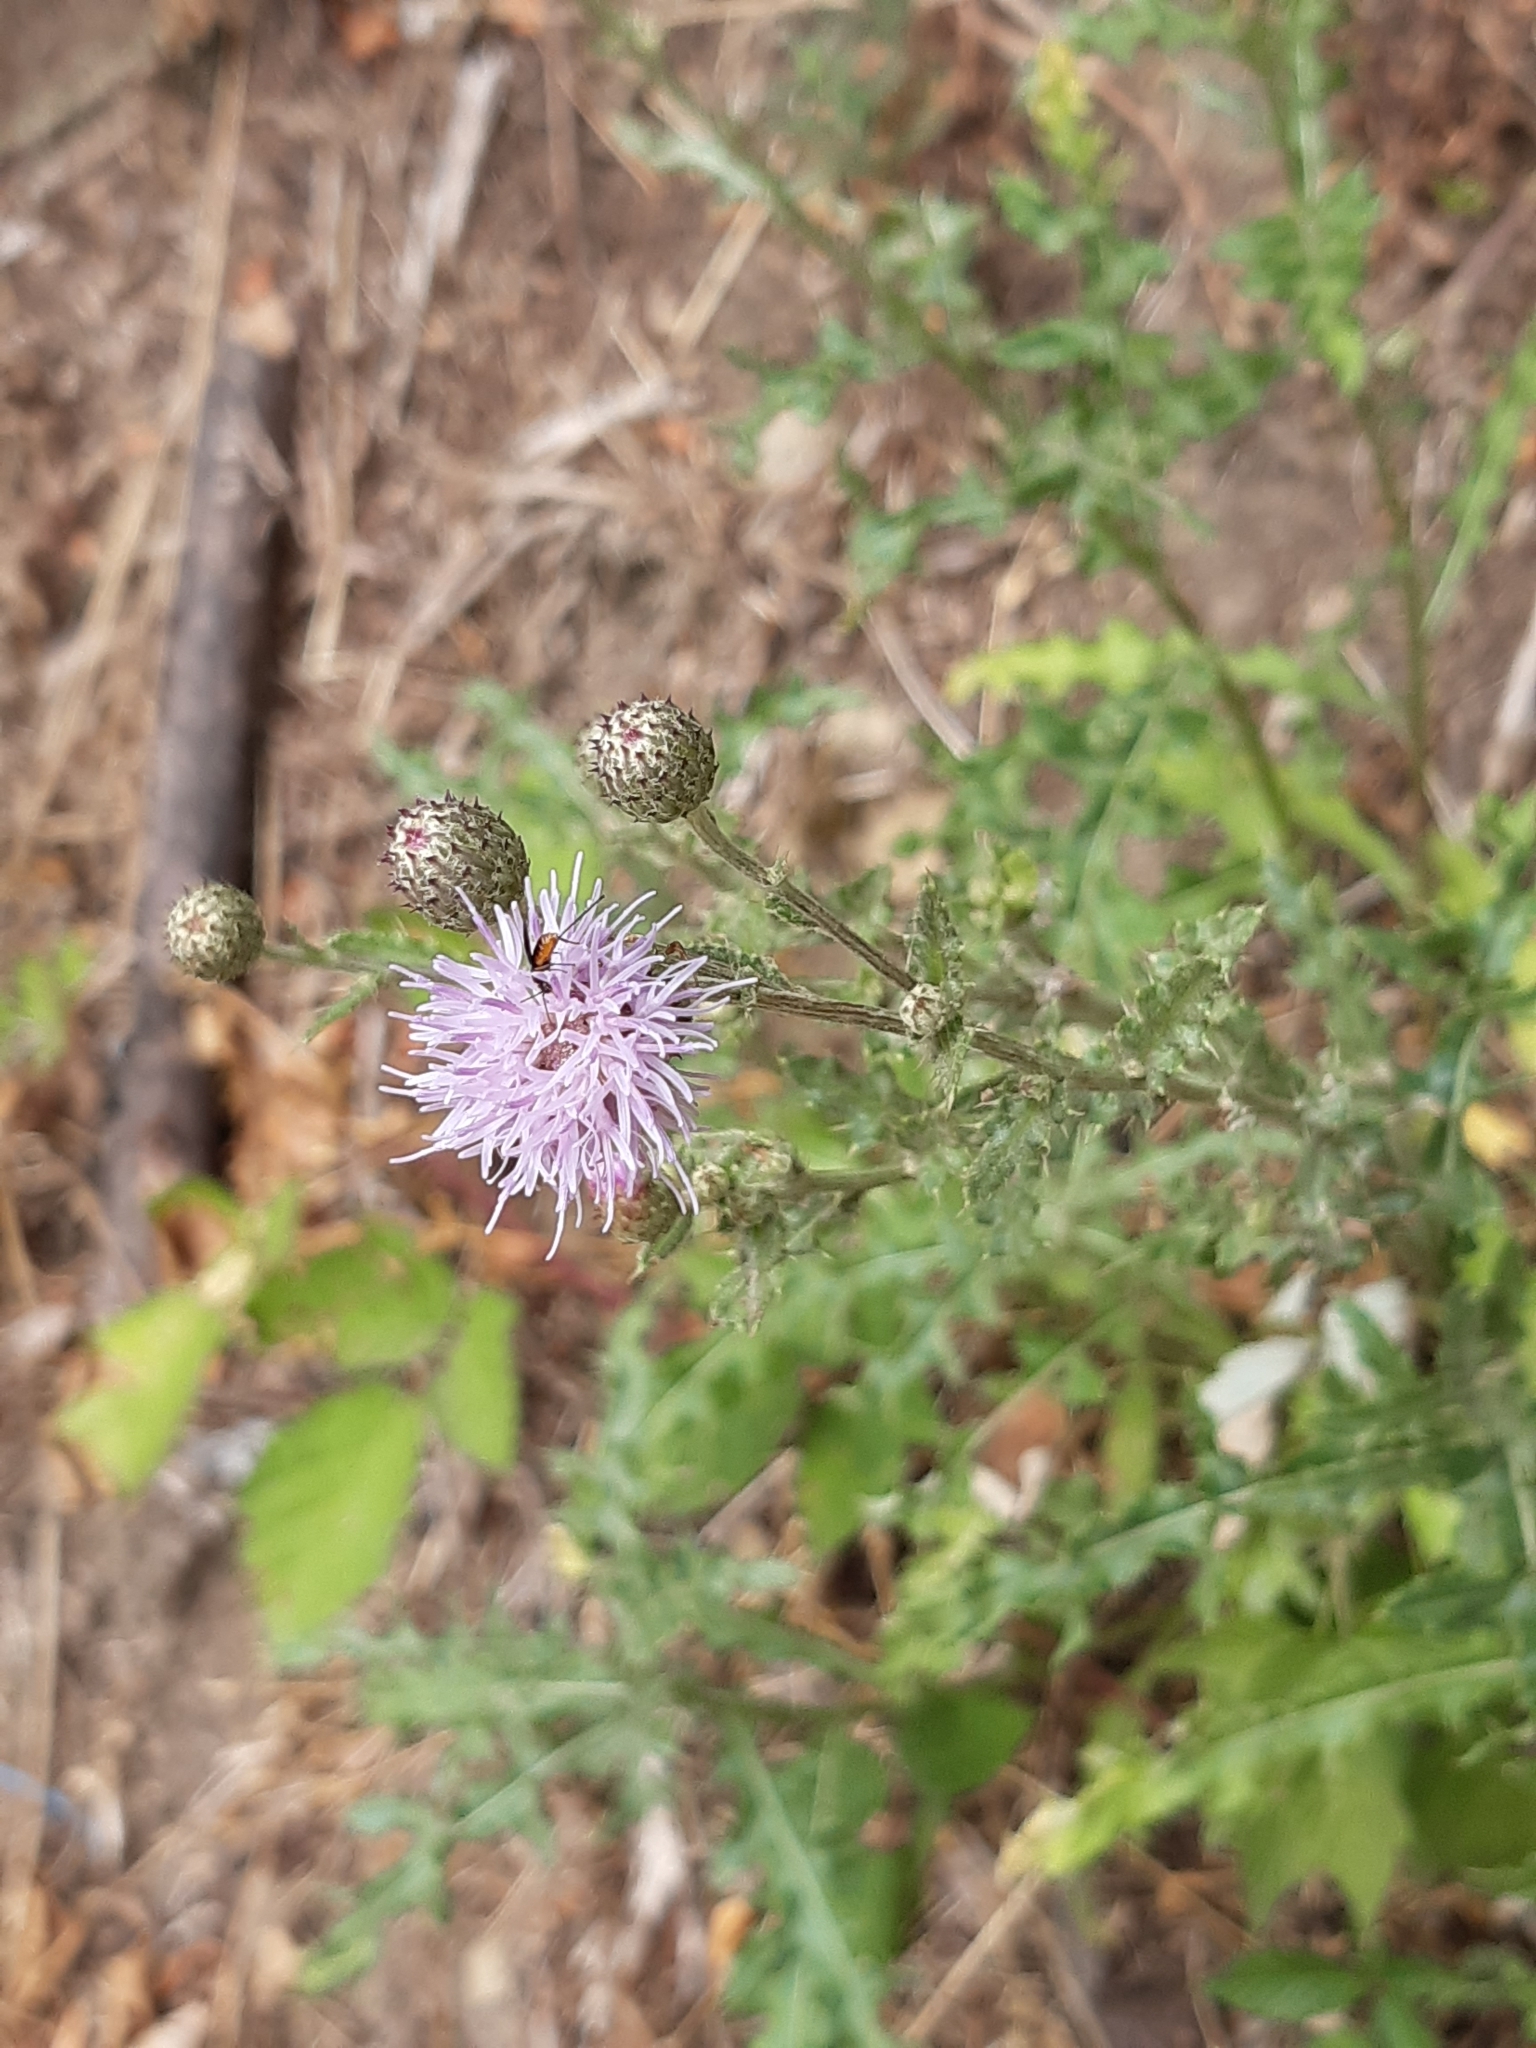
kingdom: Plantae
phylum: Tracheophyta
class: Magnoliopsida
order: Asterales
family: Asteraceae
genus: Cirsium
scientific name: Cirsium arvense
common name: Creeping thistle
